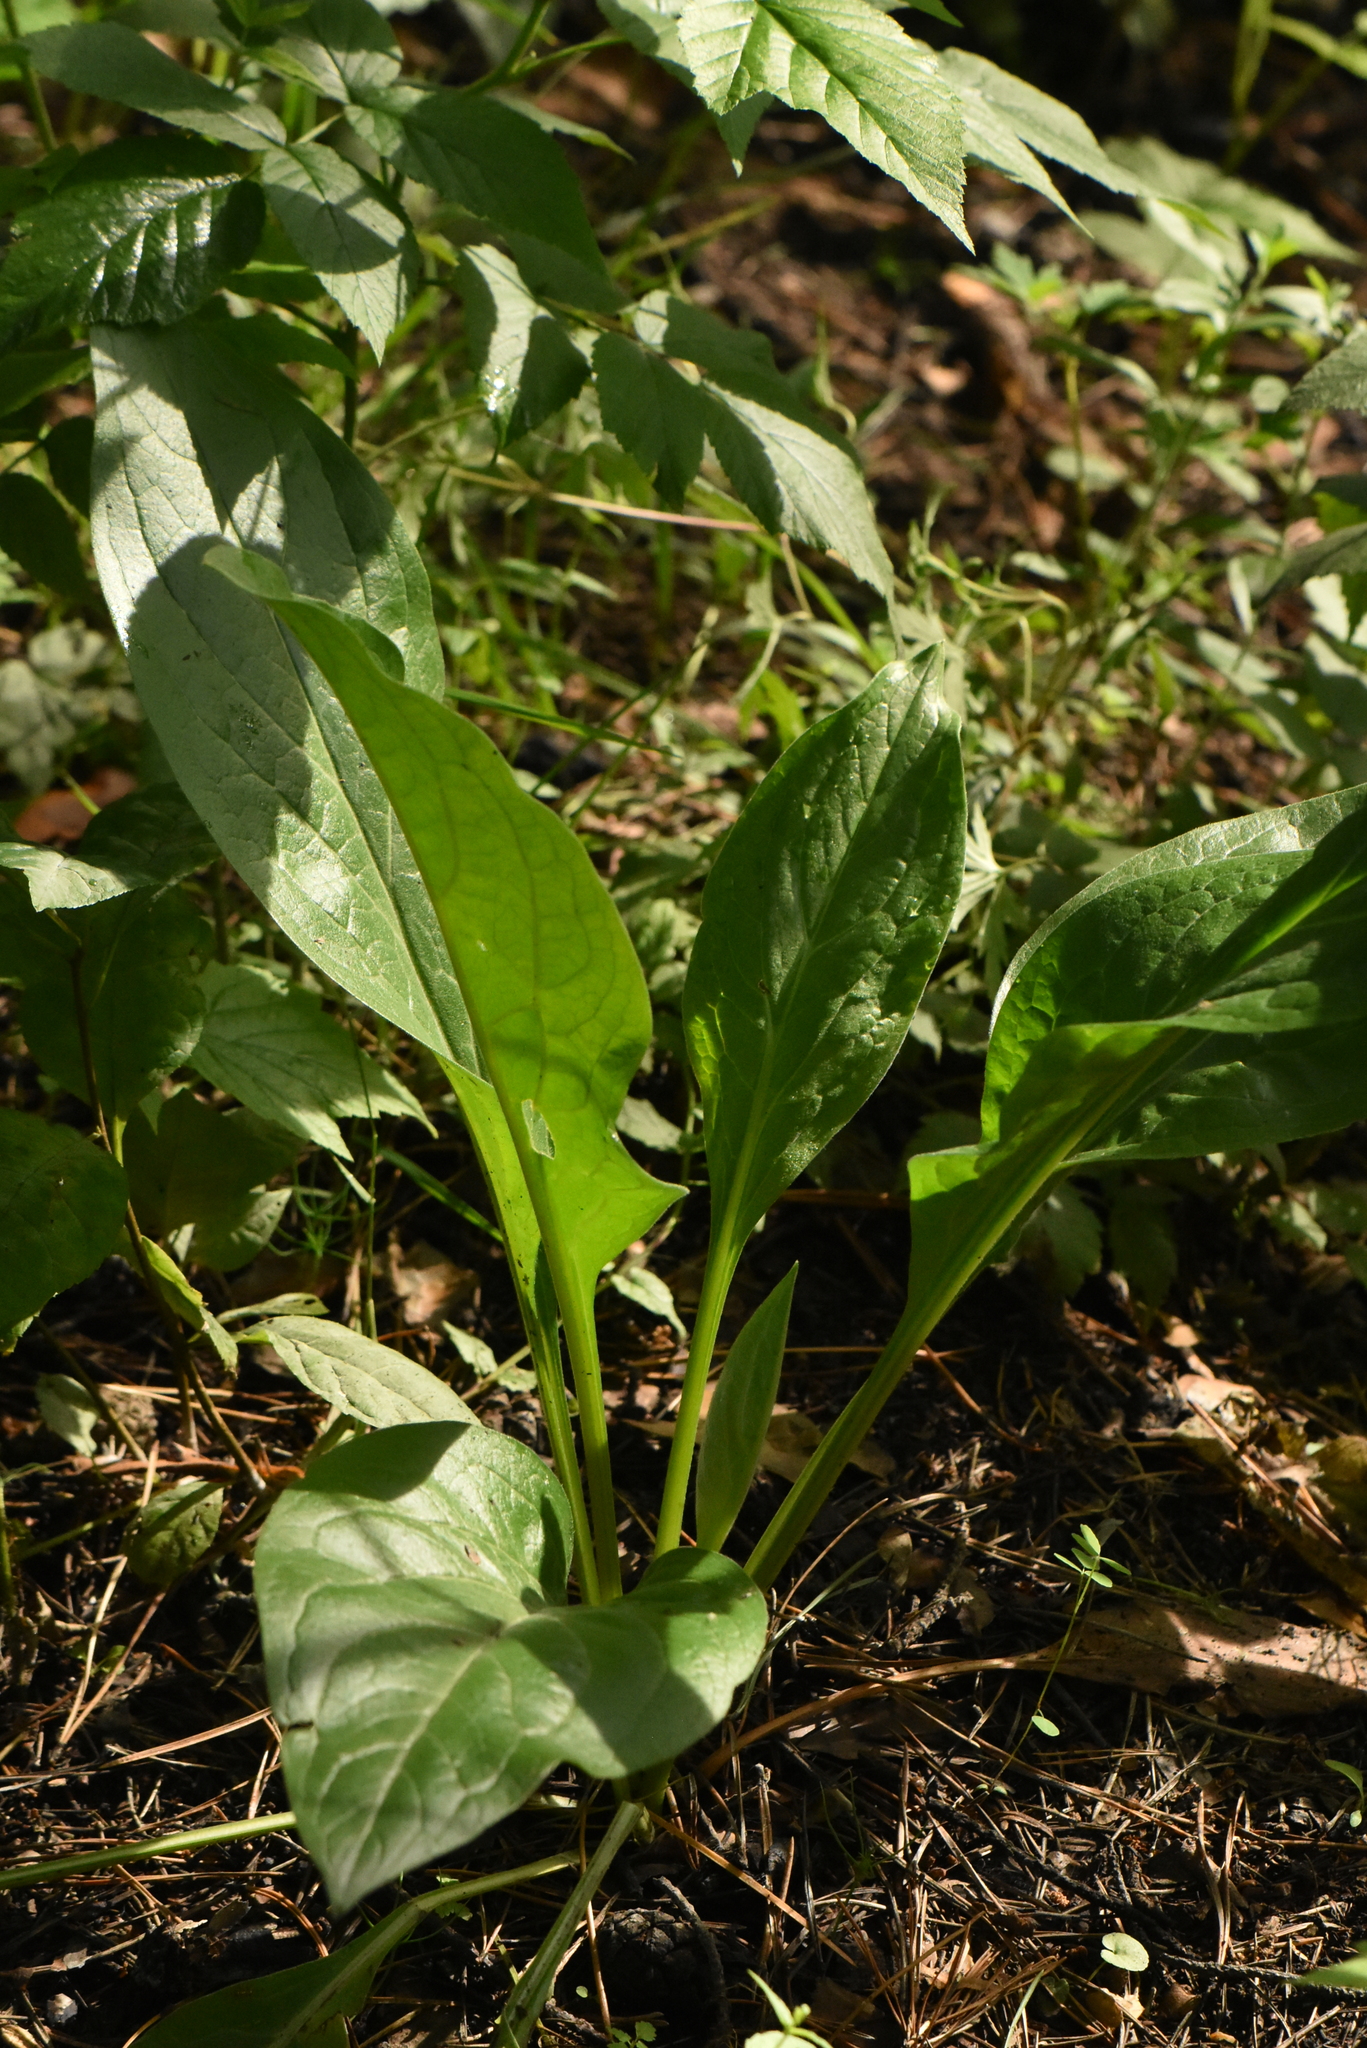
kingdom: Plantae
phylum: Tracheophyta
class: Magnoliopsida
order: Asterales
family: Asteraceae
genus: Solidago
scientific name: Solidago virgaurea
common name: Goldenrod
